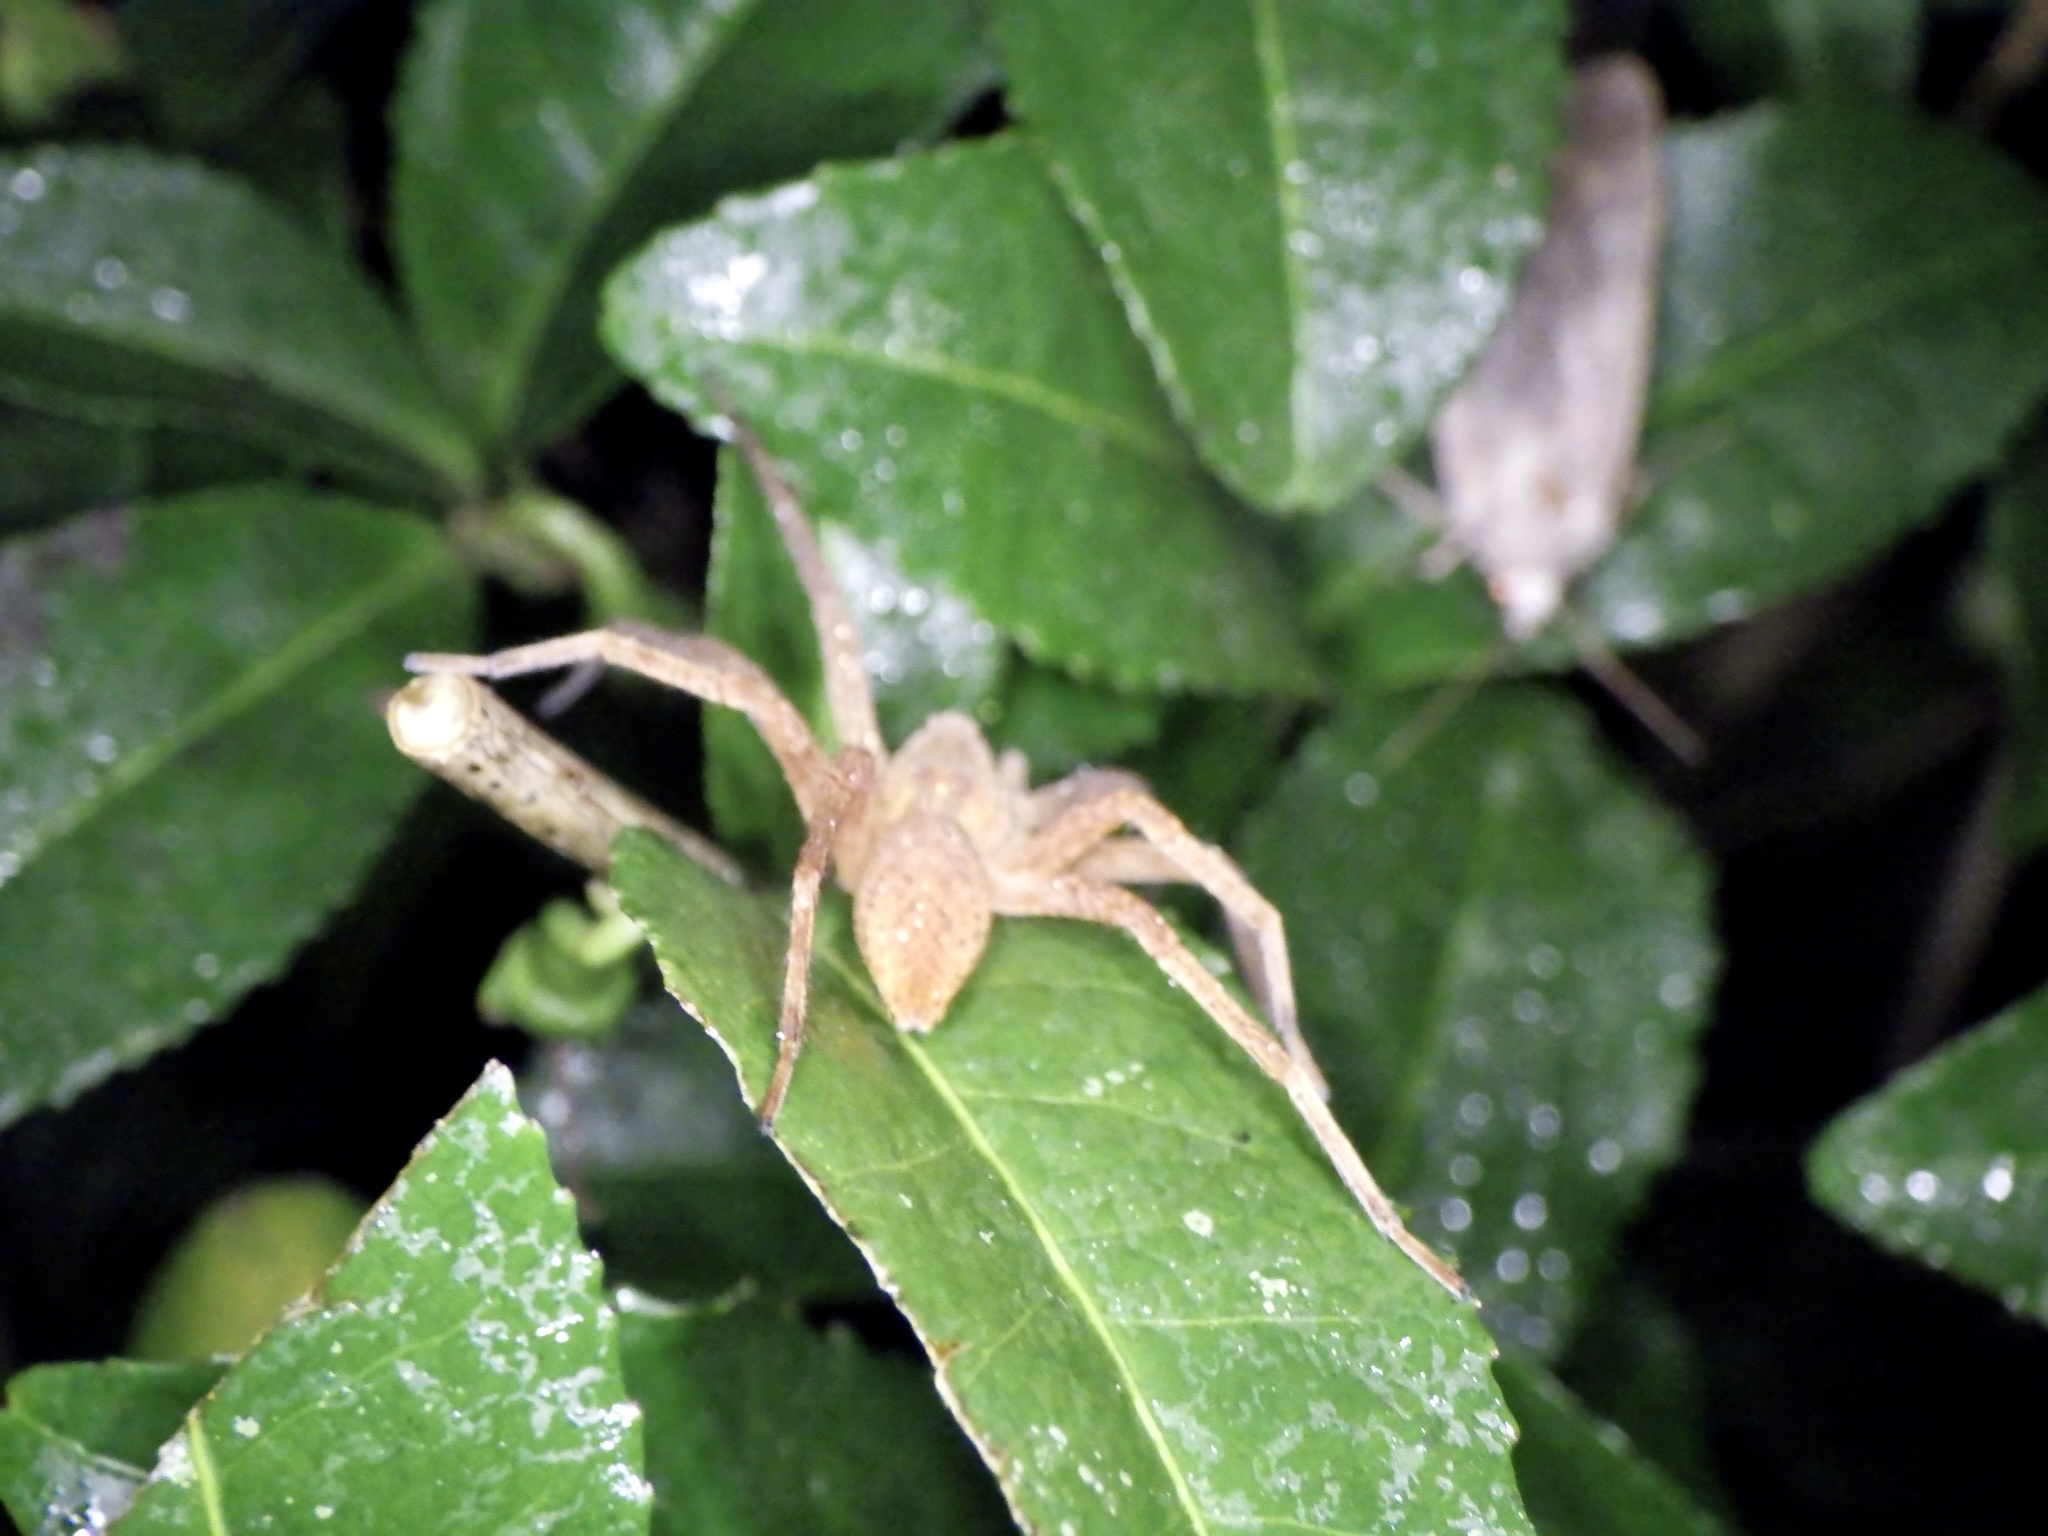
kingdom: Animalia
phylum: Arthropoda
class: Arachnida
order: Araneae
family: Pisauridae
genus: Dolomedes
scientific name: Dolomedes sulfureus
